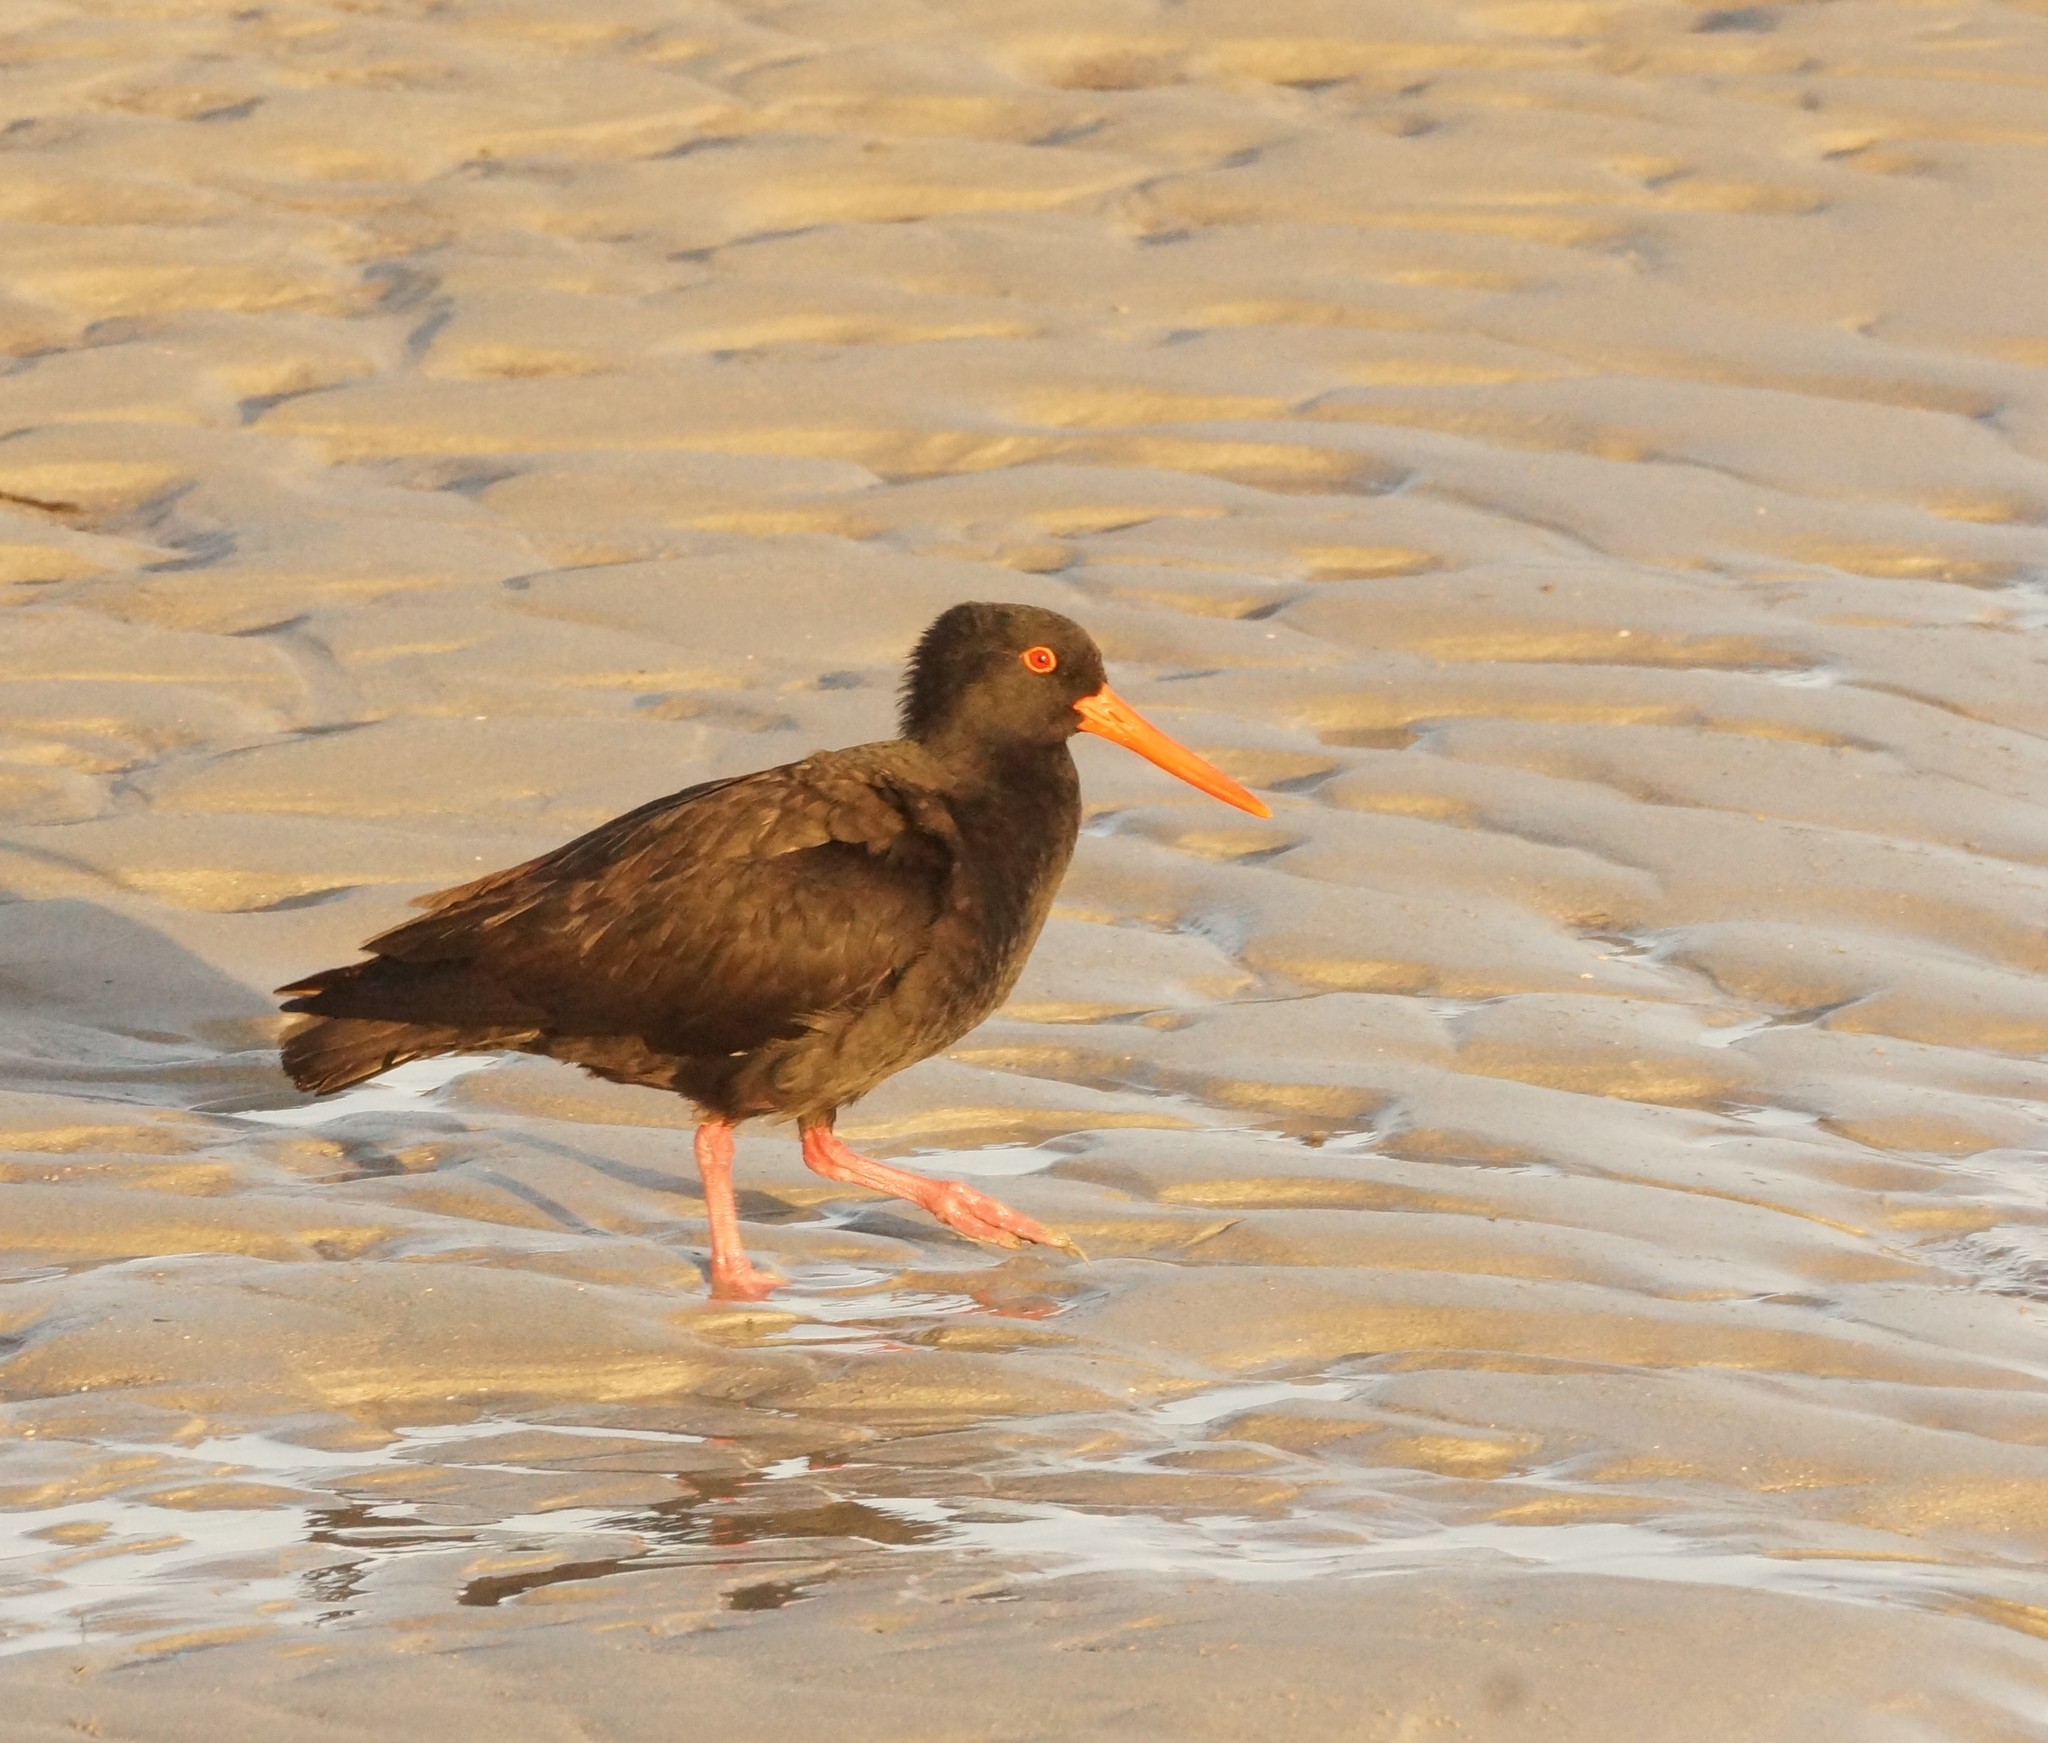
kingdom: Animalia
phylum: Chordata
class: Aves
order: Charadriiformes
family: Haematopodidae
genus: Haematopus
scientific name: Haematopus fuliginosus
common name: Sooty oystercatcher
